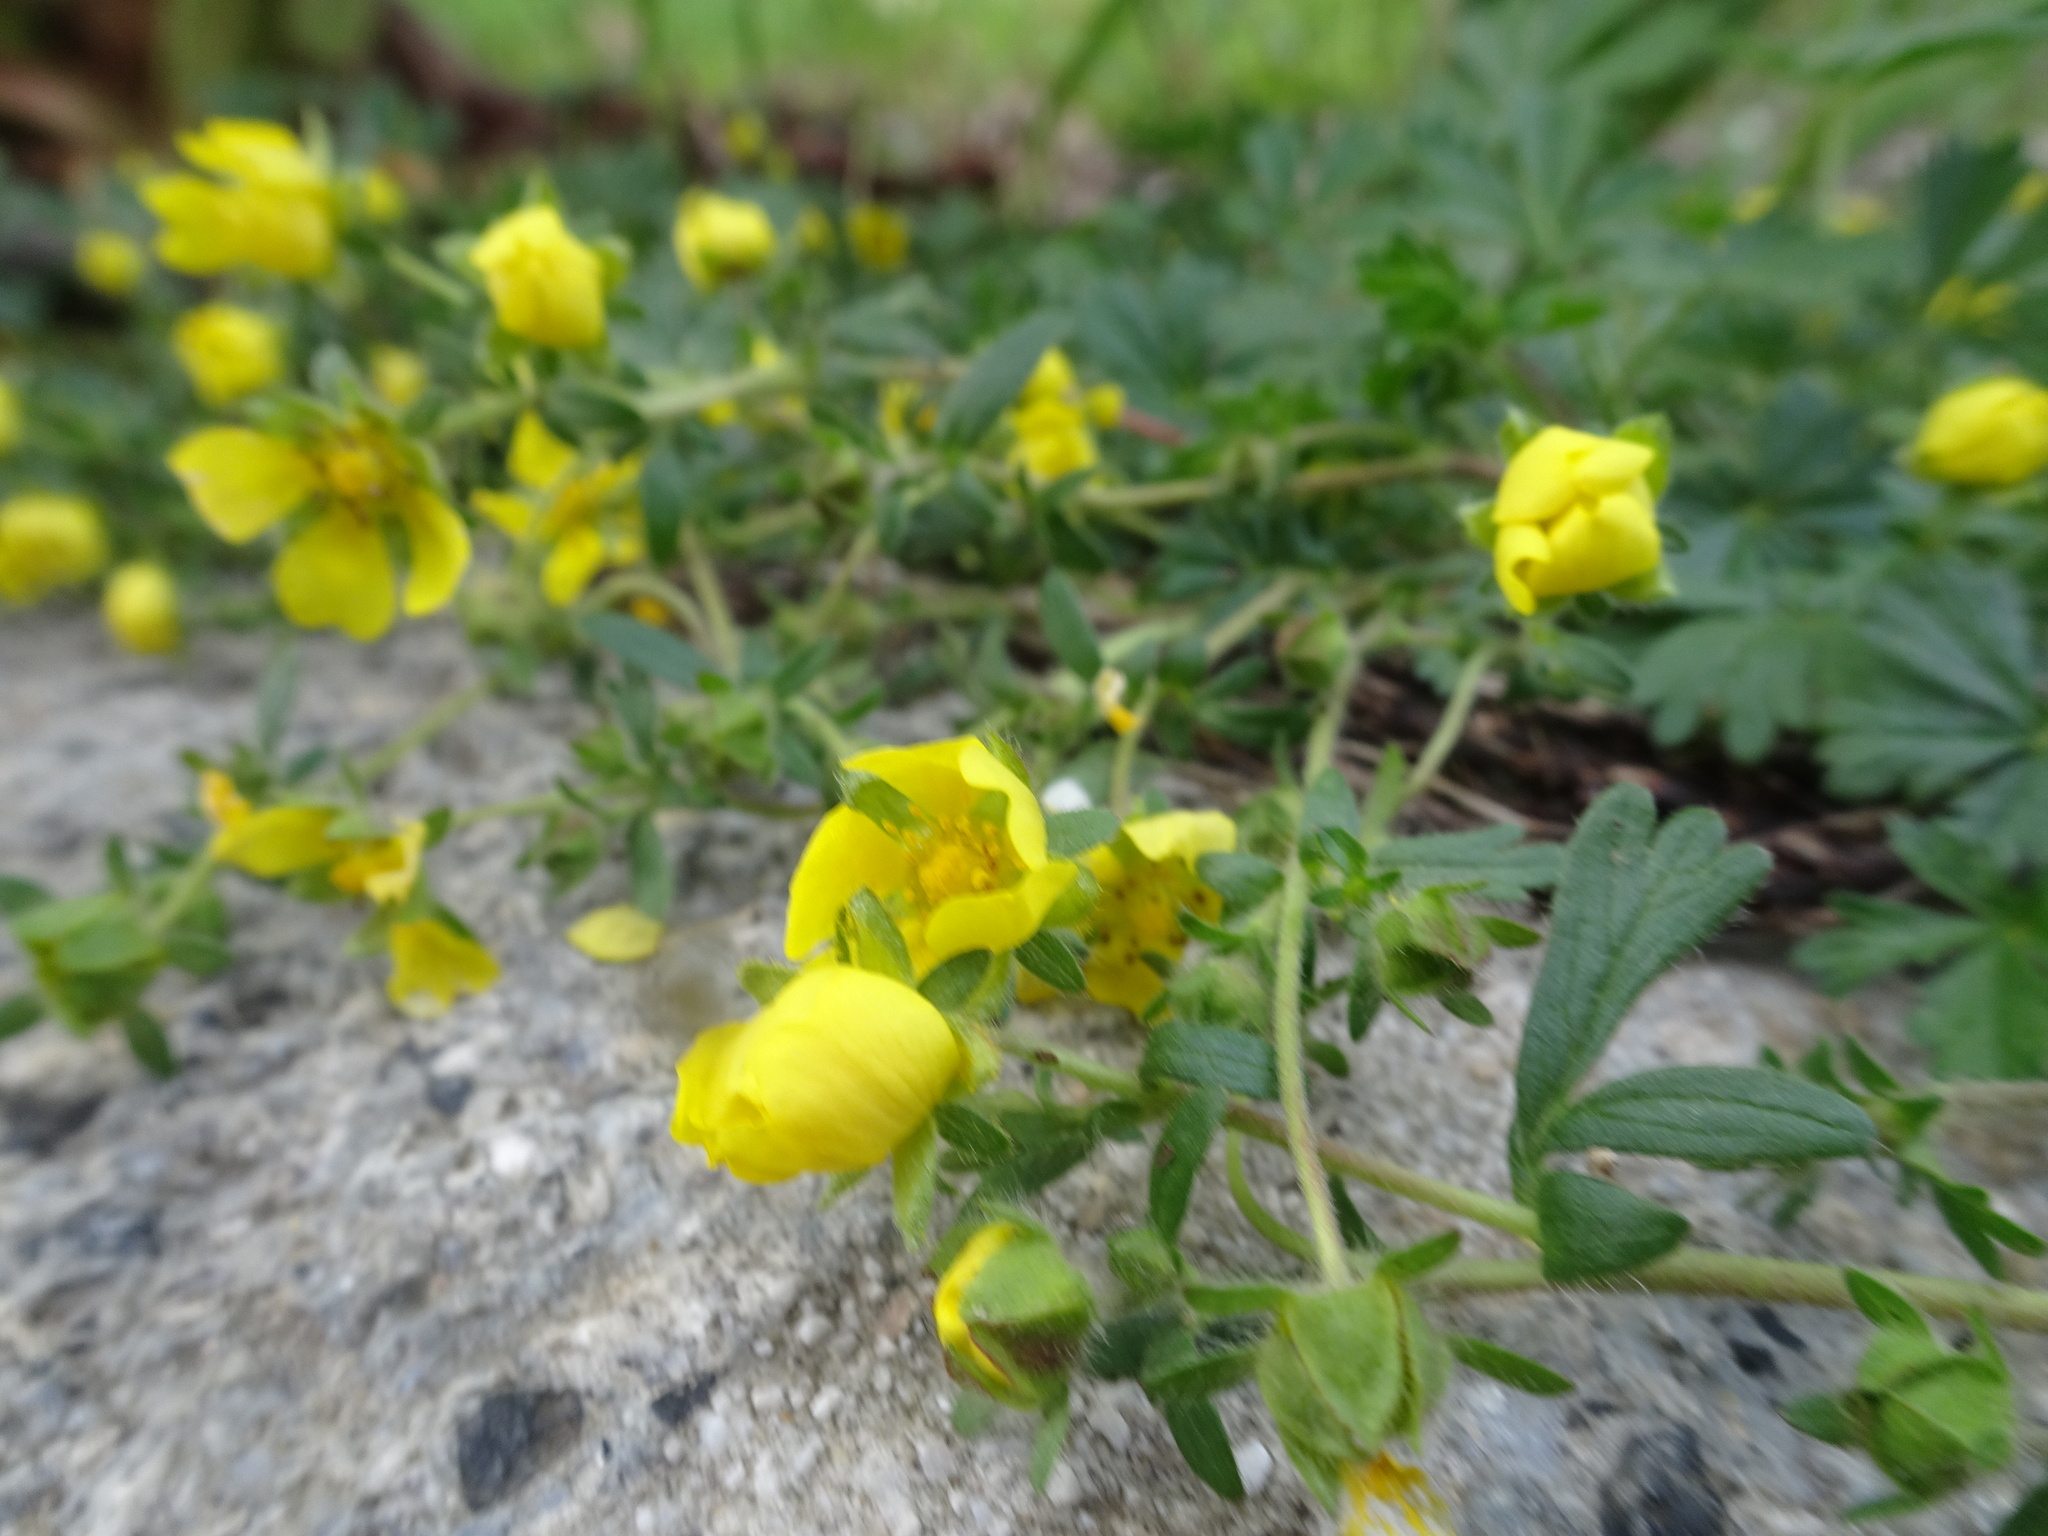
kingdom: Plantae
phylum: Tracheophyta
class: Magnoliopsida
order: Rosales
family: Rosaceae
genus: Potentilla
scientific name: Potentilla verna
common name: Spring cinquefoil
